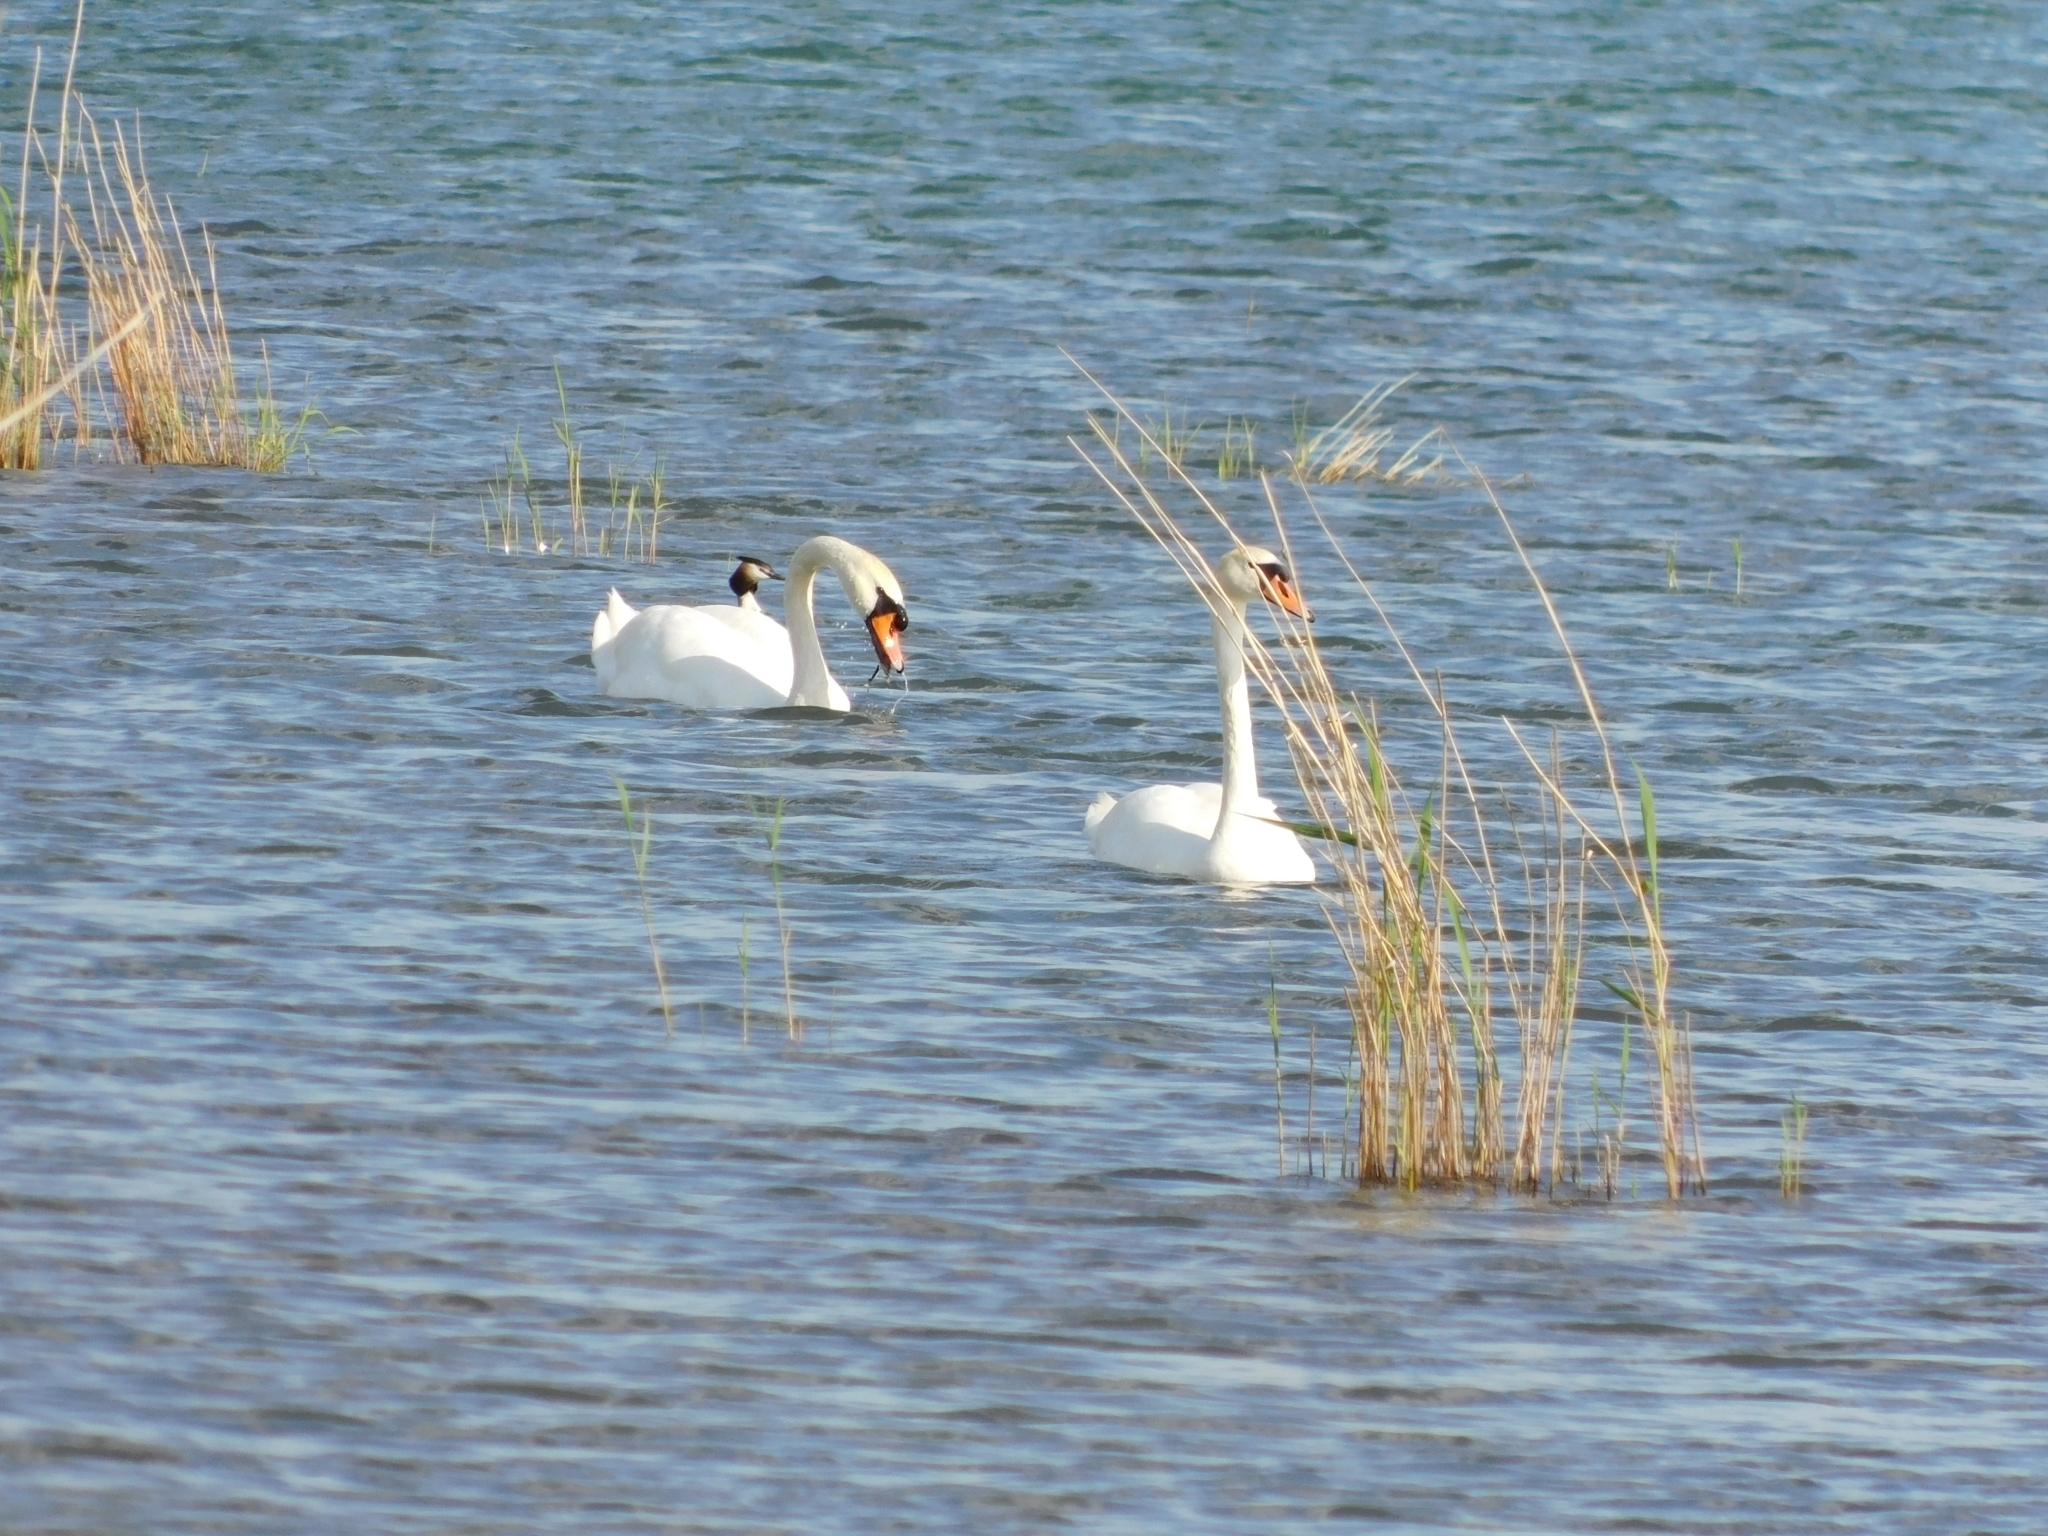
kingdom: Animalia
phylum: Chordata
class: Aves
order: Anseriformes
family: Anatidae
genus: Cygnus
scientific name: Cygnus olor
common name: Mute swan
